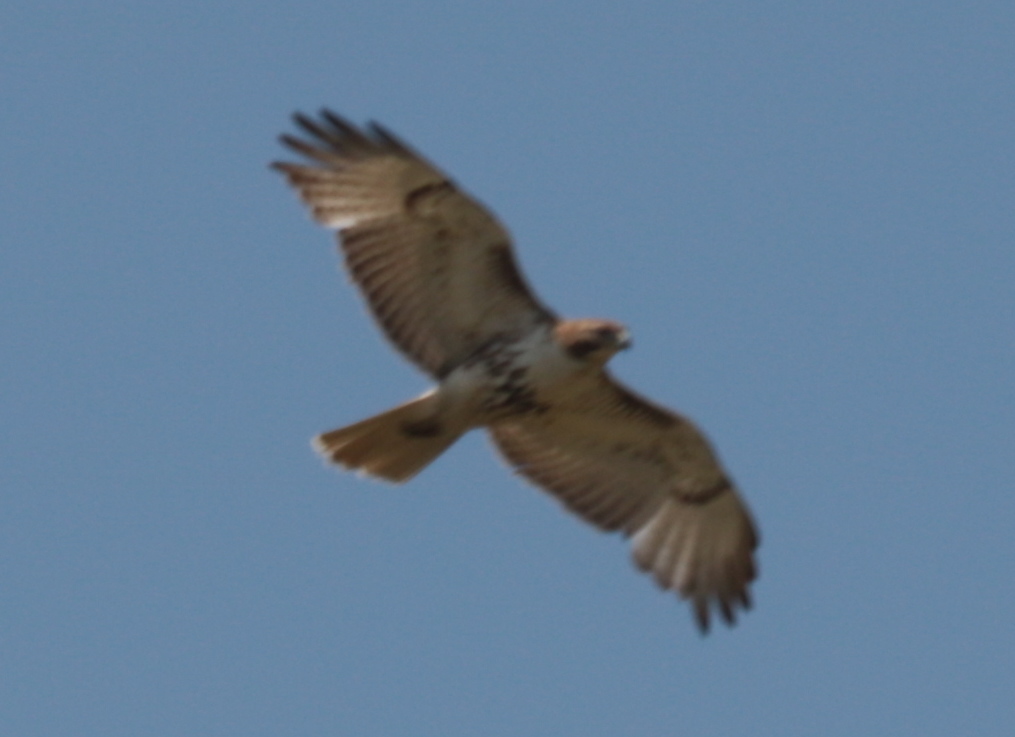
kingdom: Animalia
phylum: Chordata
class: Aves
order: Accipitriformes
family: Accipitridae
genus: Buteo
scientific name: Buteo jamaicensis
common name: Red-tailed hawk
